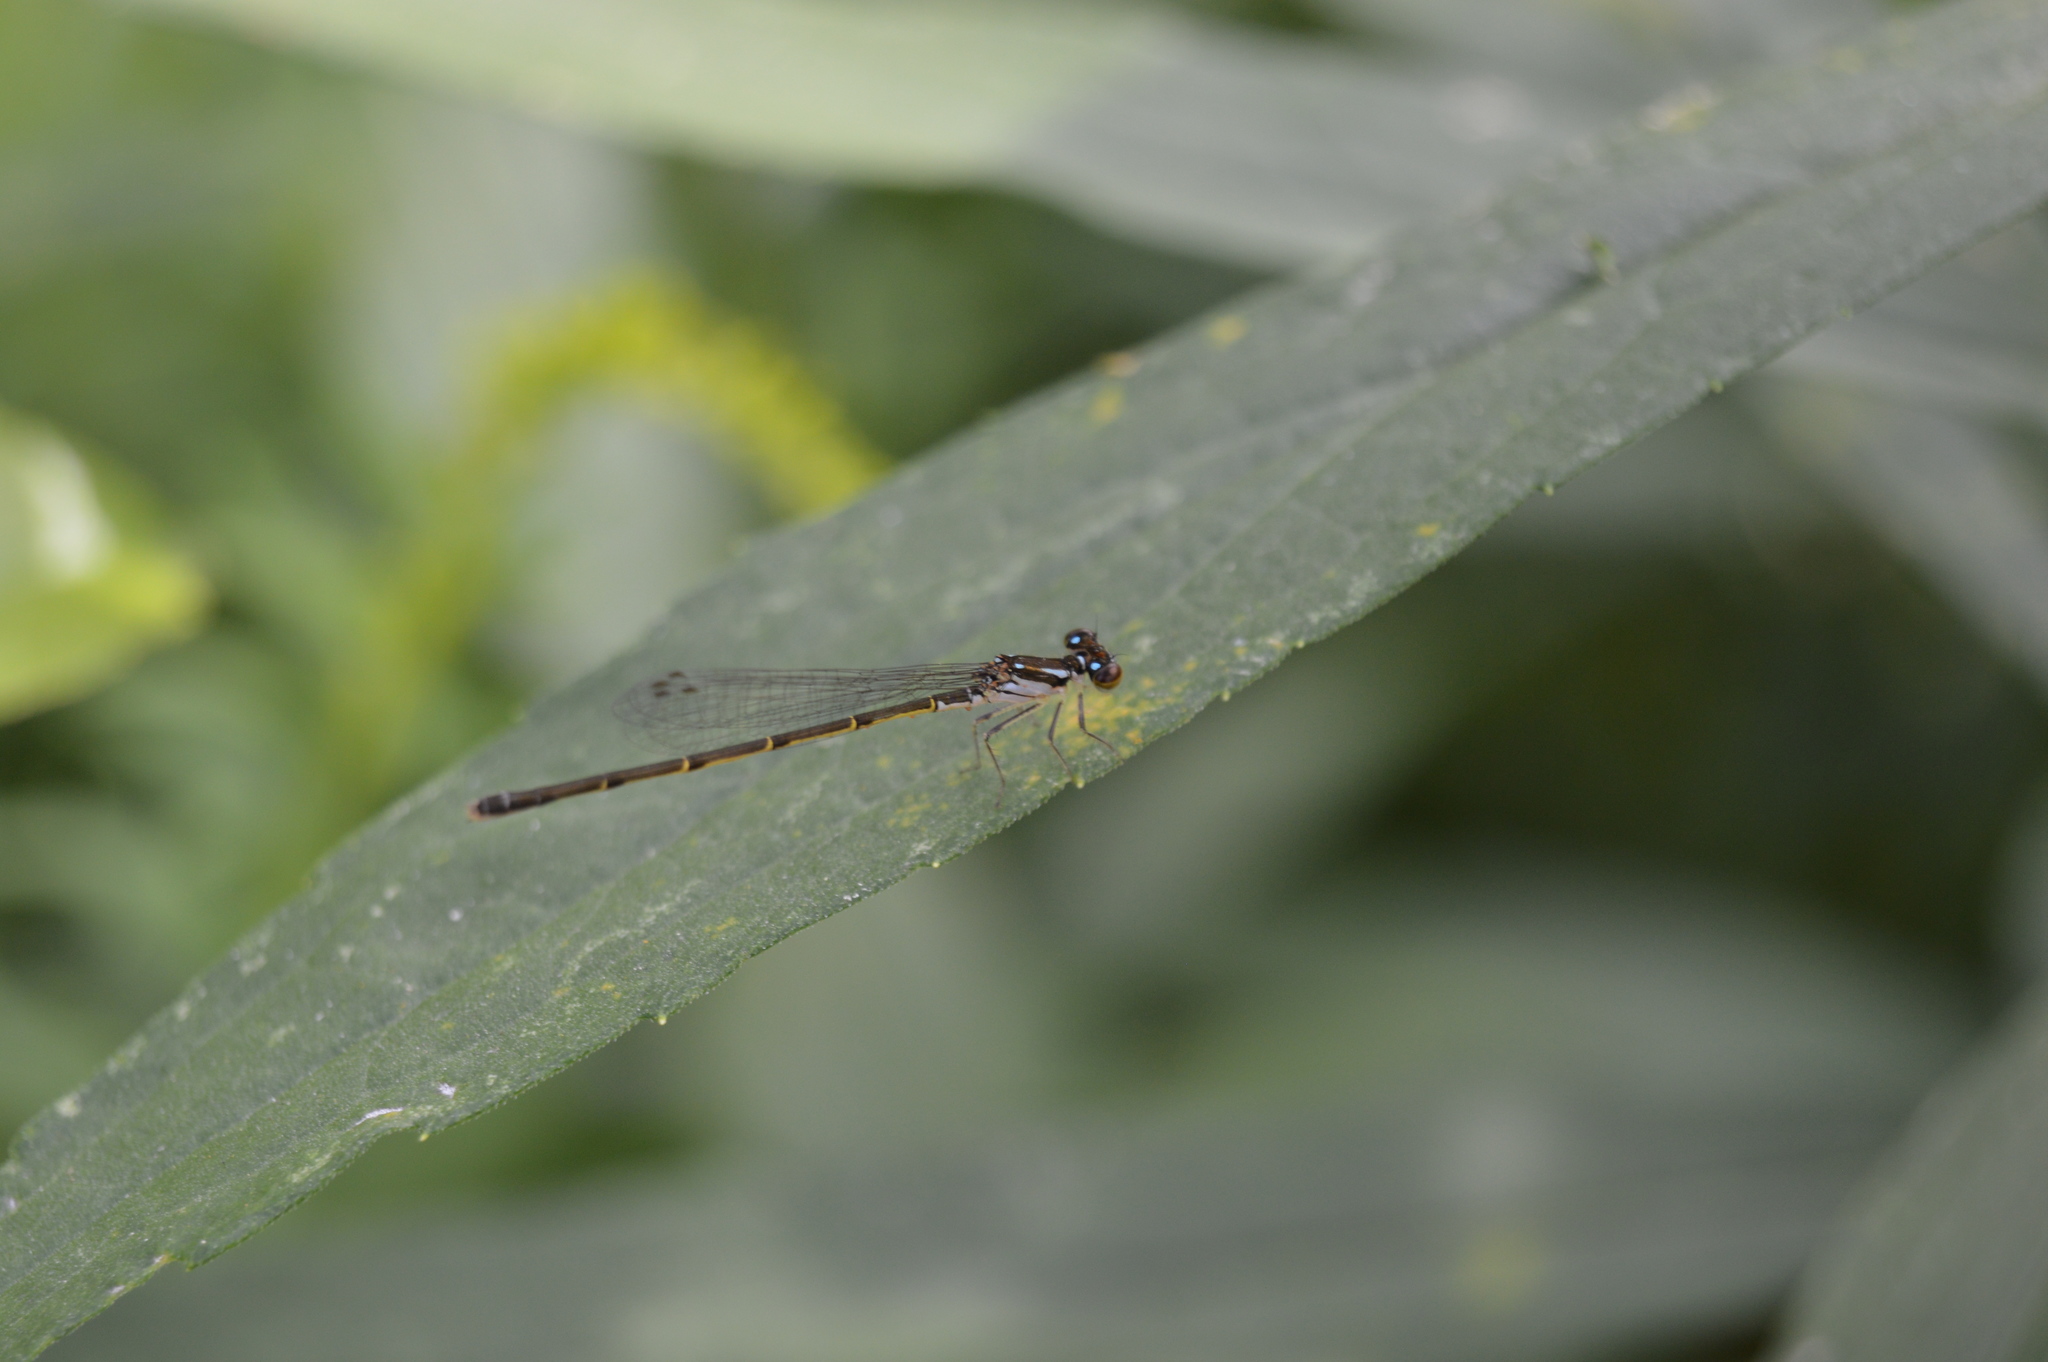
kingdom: Animalia
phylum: Arthropoda
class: Insecta
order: Odonata
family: Coenagrionidae
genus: Ischnura
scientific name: Ischnura posita
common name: Fragile forktail
